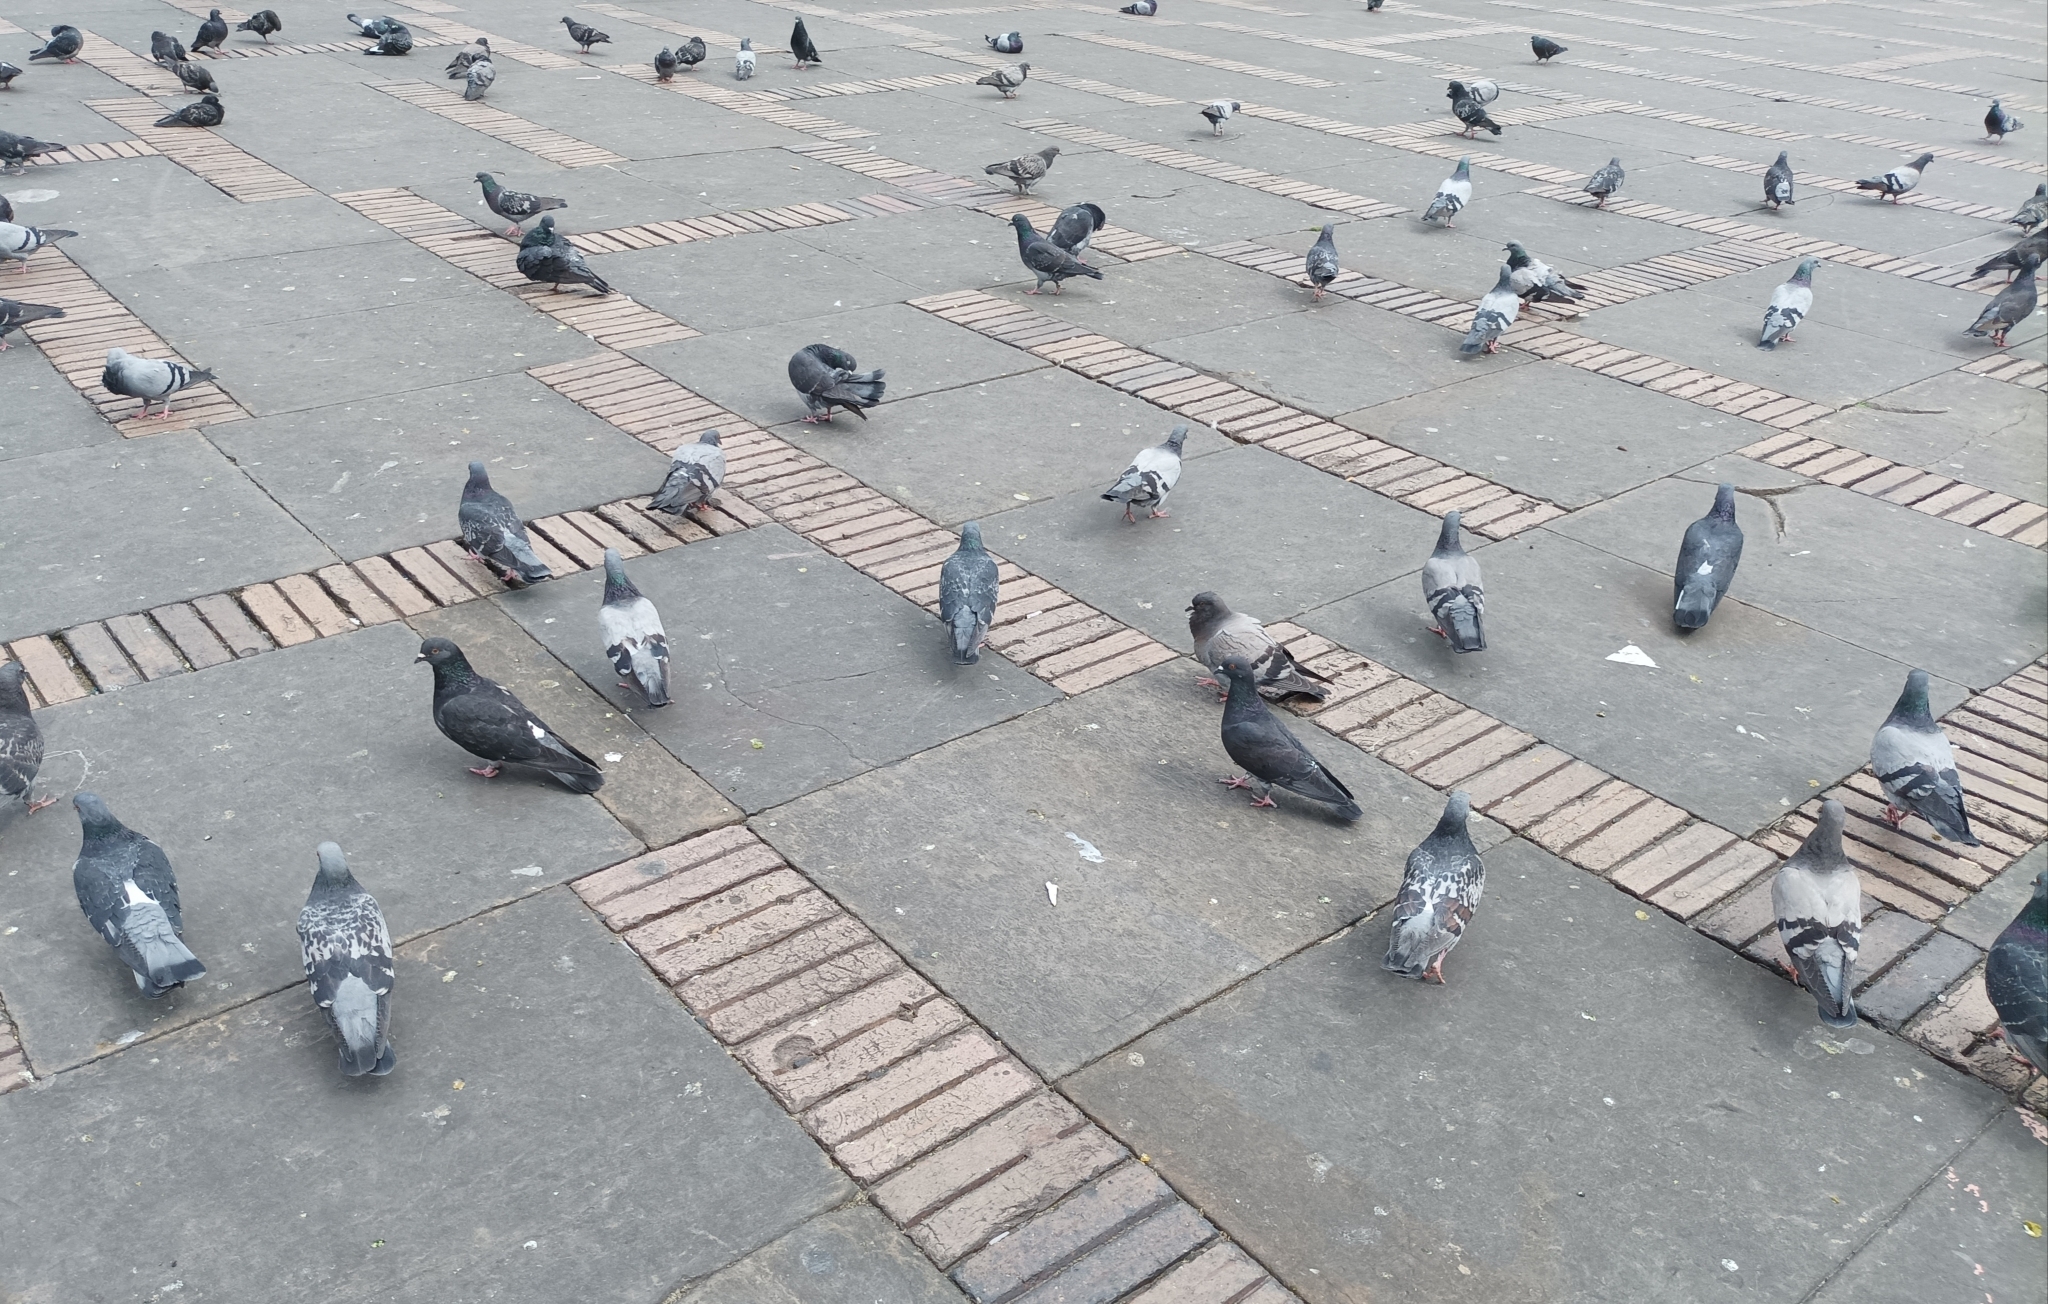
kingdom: Animalia
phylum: Chordata
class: Aves
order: Columbiformes
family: Columbidae
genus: Columba
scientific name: Columba livia
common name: Rock pigeon
